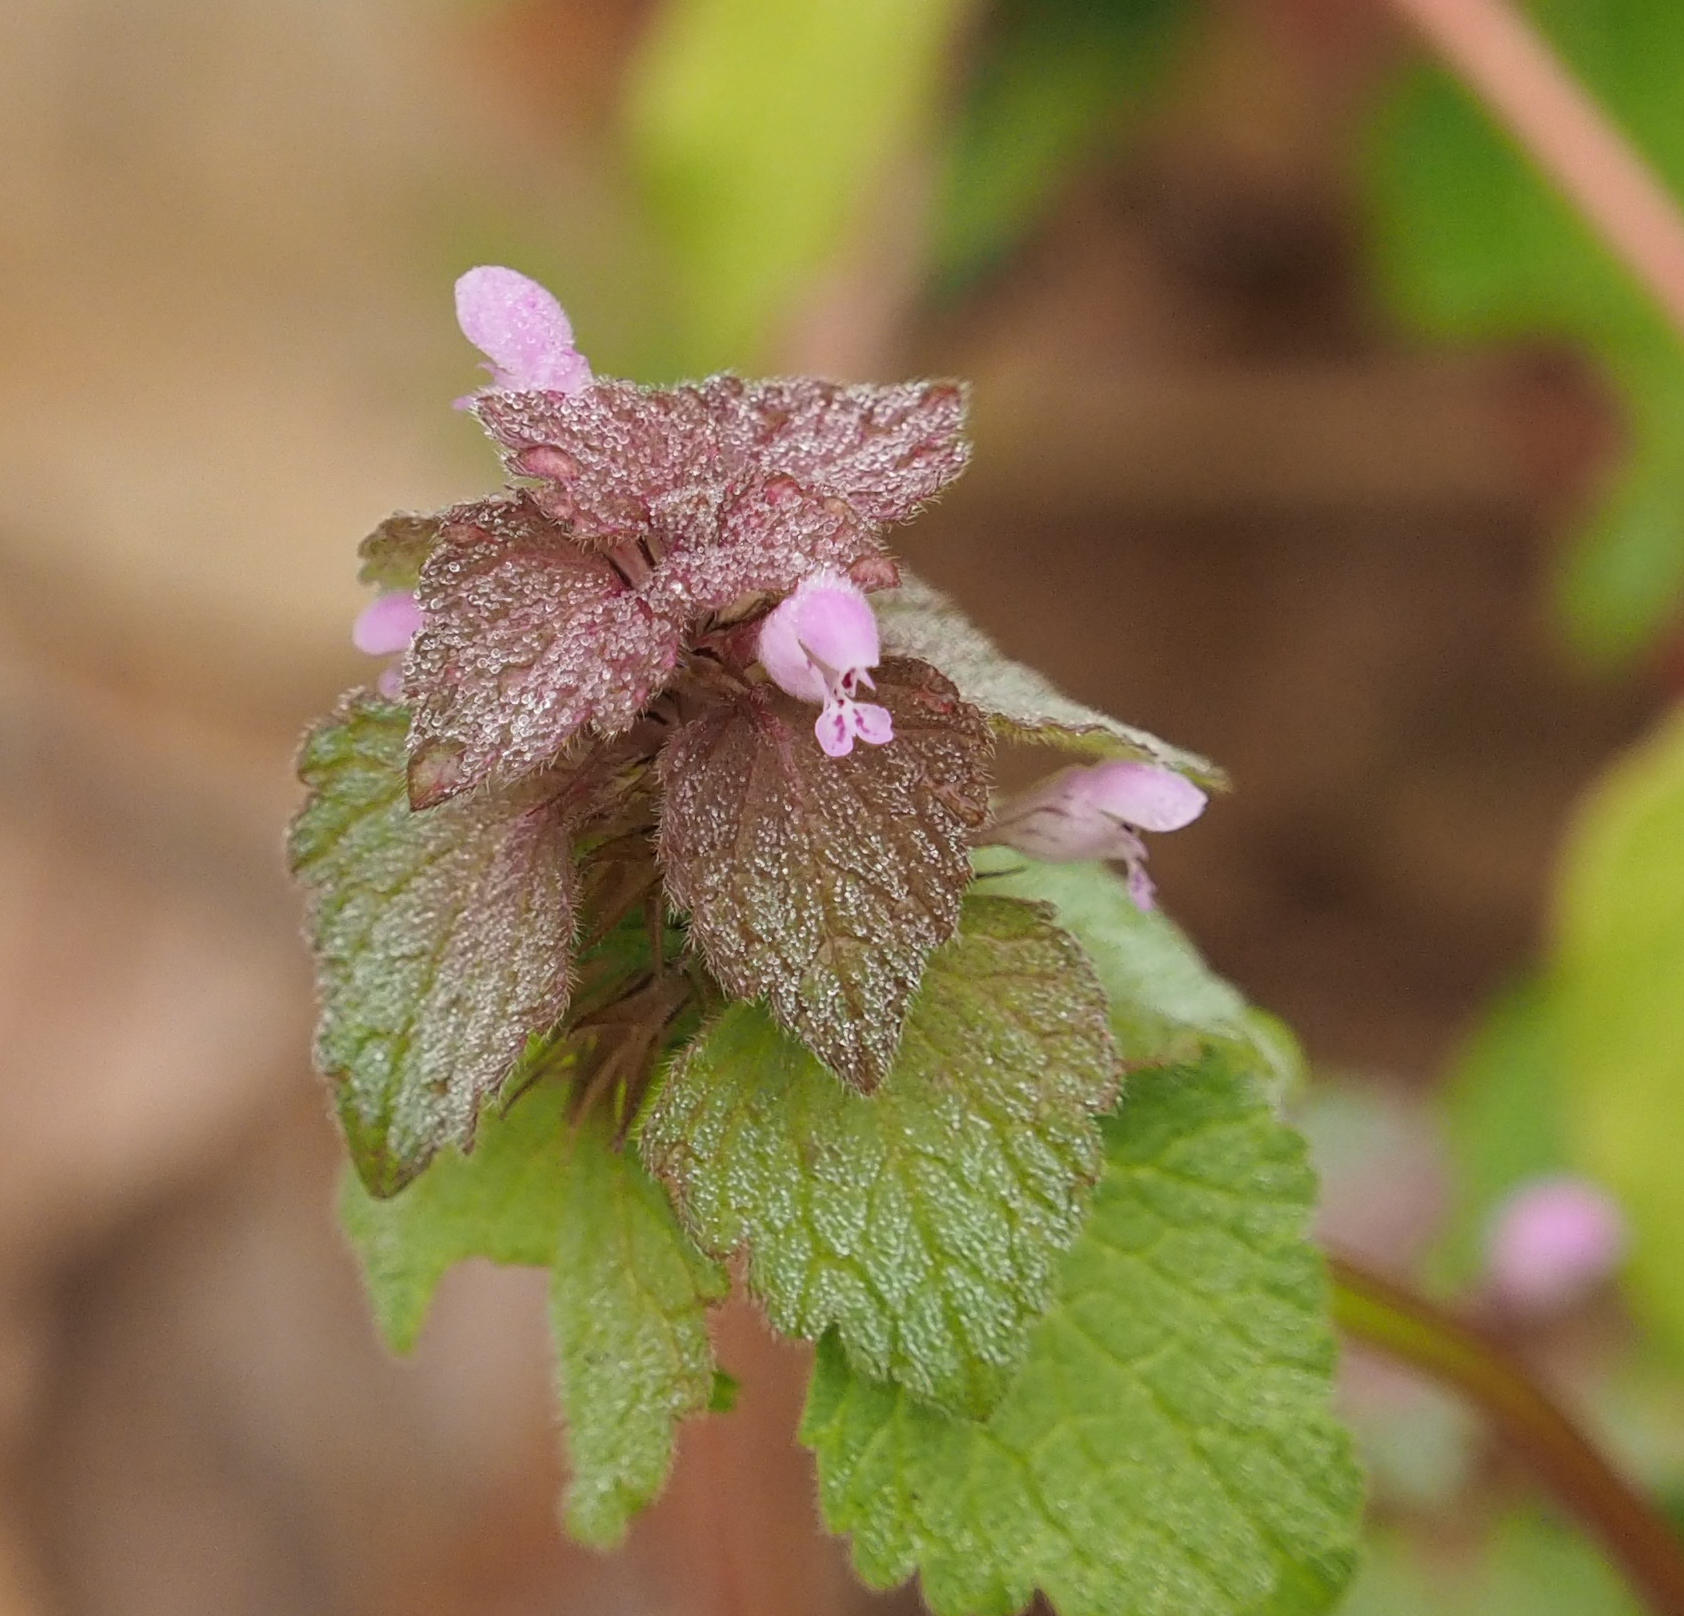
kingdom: Plantae
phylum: Tracheophyta
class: Magnoliopsida
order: Lamiales
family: Lamiaceae
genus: Lamium
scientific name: Lamium purpureum
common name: Red dead-nettle
